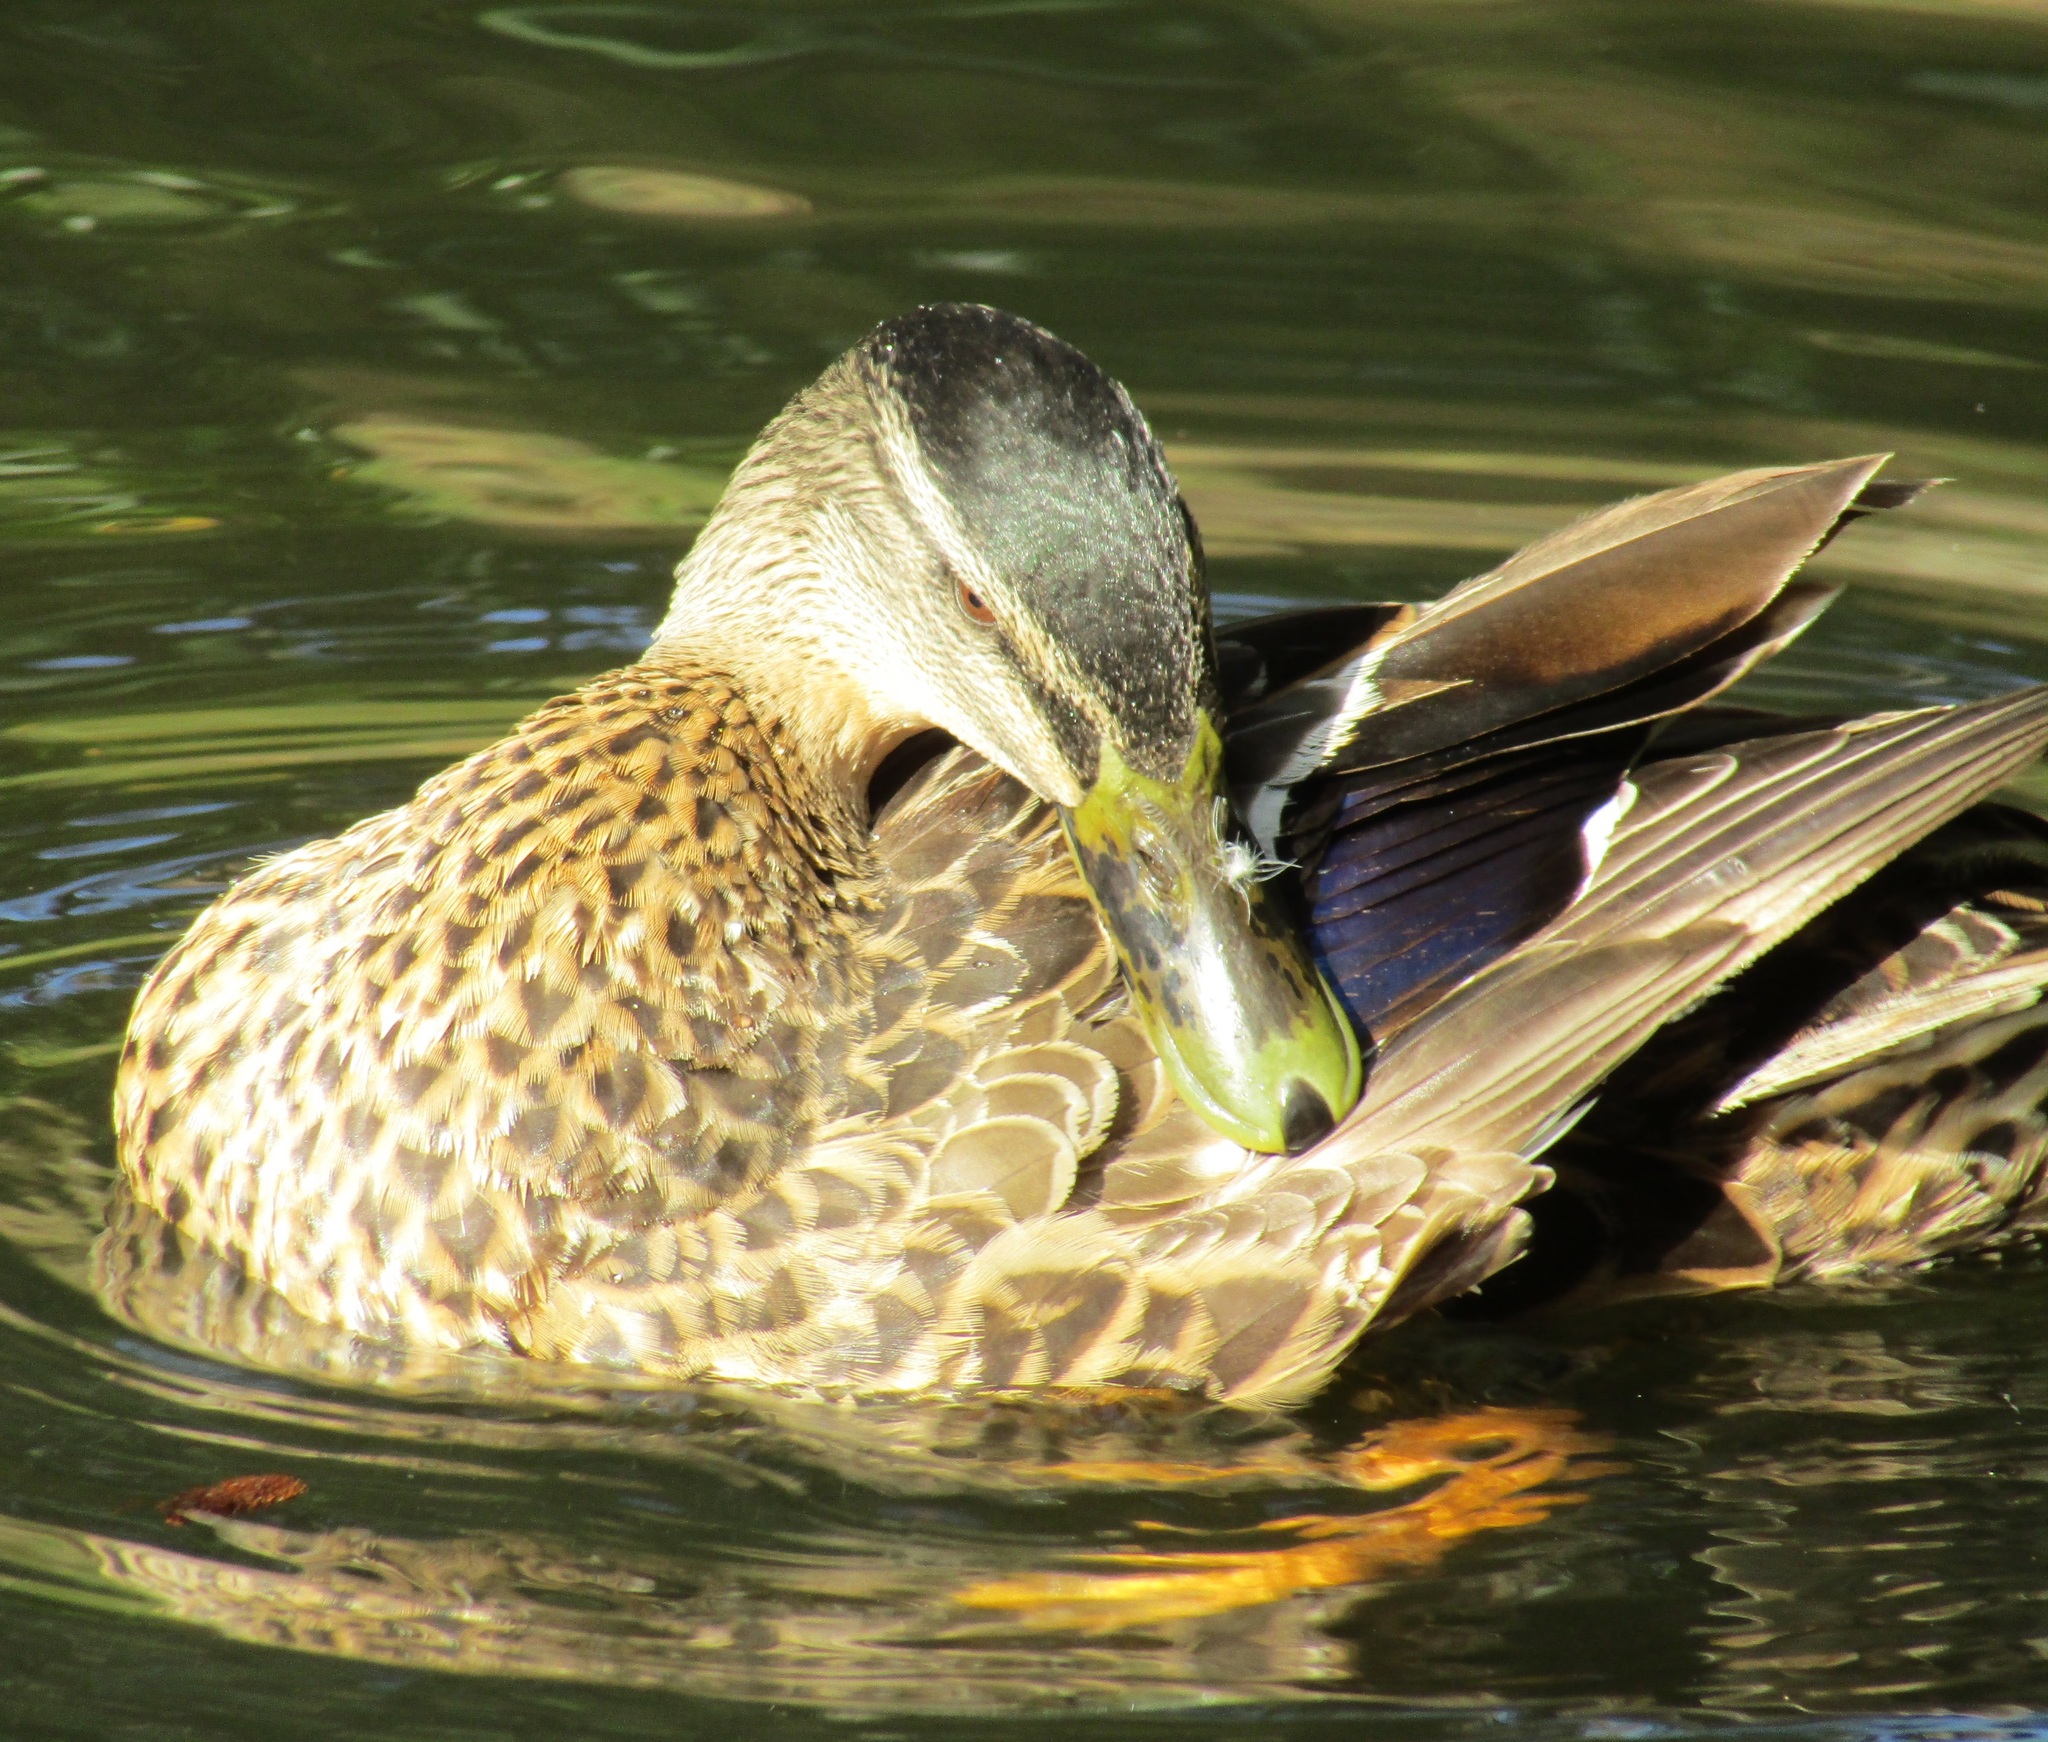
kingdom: Animalia
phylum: Chordata
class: Aves
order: Anseriformes
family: Anatidae
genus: Anas
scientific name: Anas
